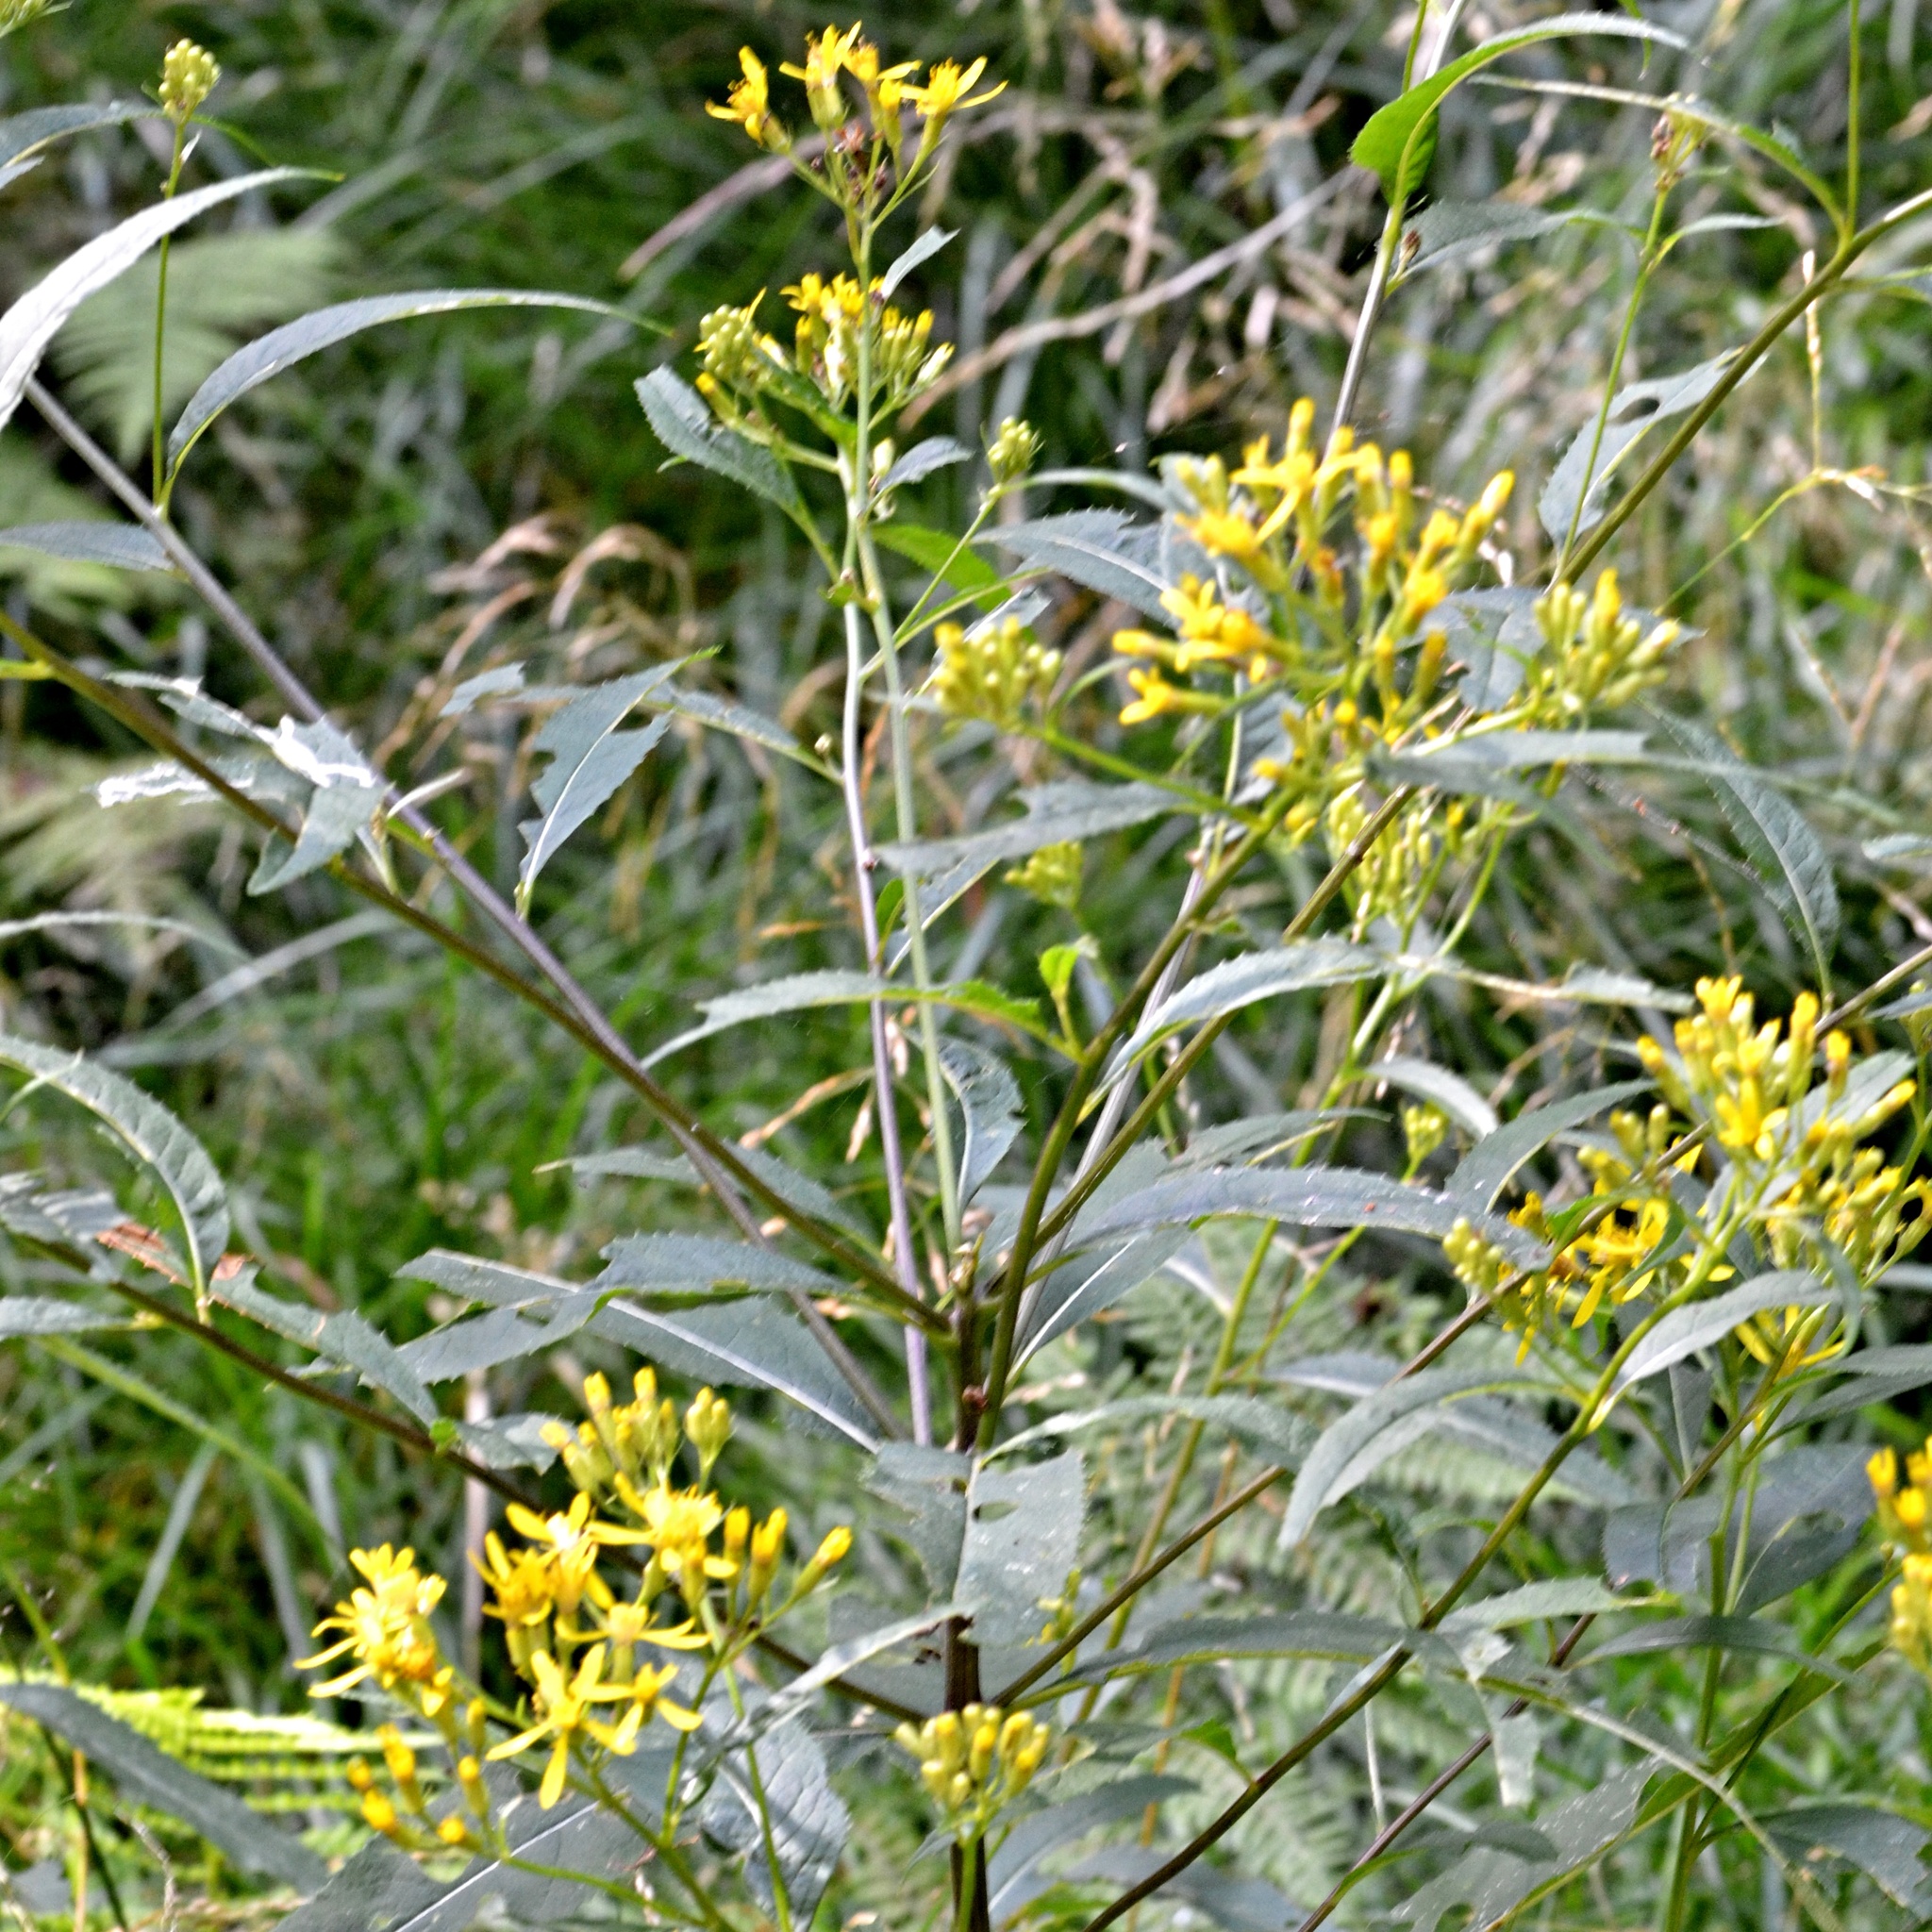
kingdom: Plantae
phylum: Tracheophyta
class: Magnoliopsida
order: Asterales
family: Asteraceae
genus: Senecio
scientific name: Senecio ovatus
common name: Wood ragwort
